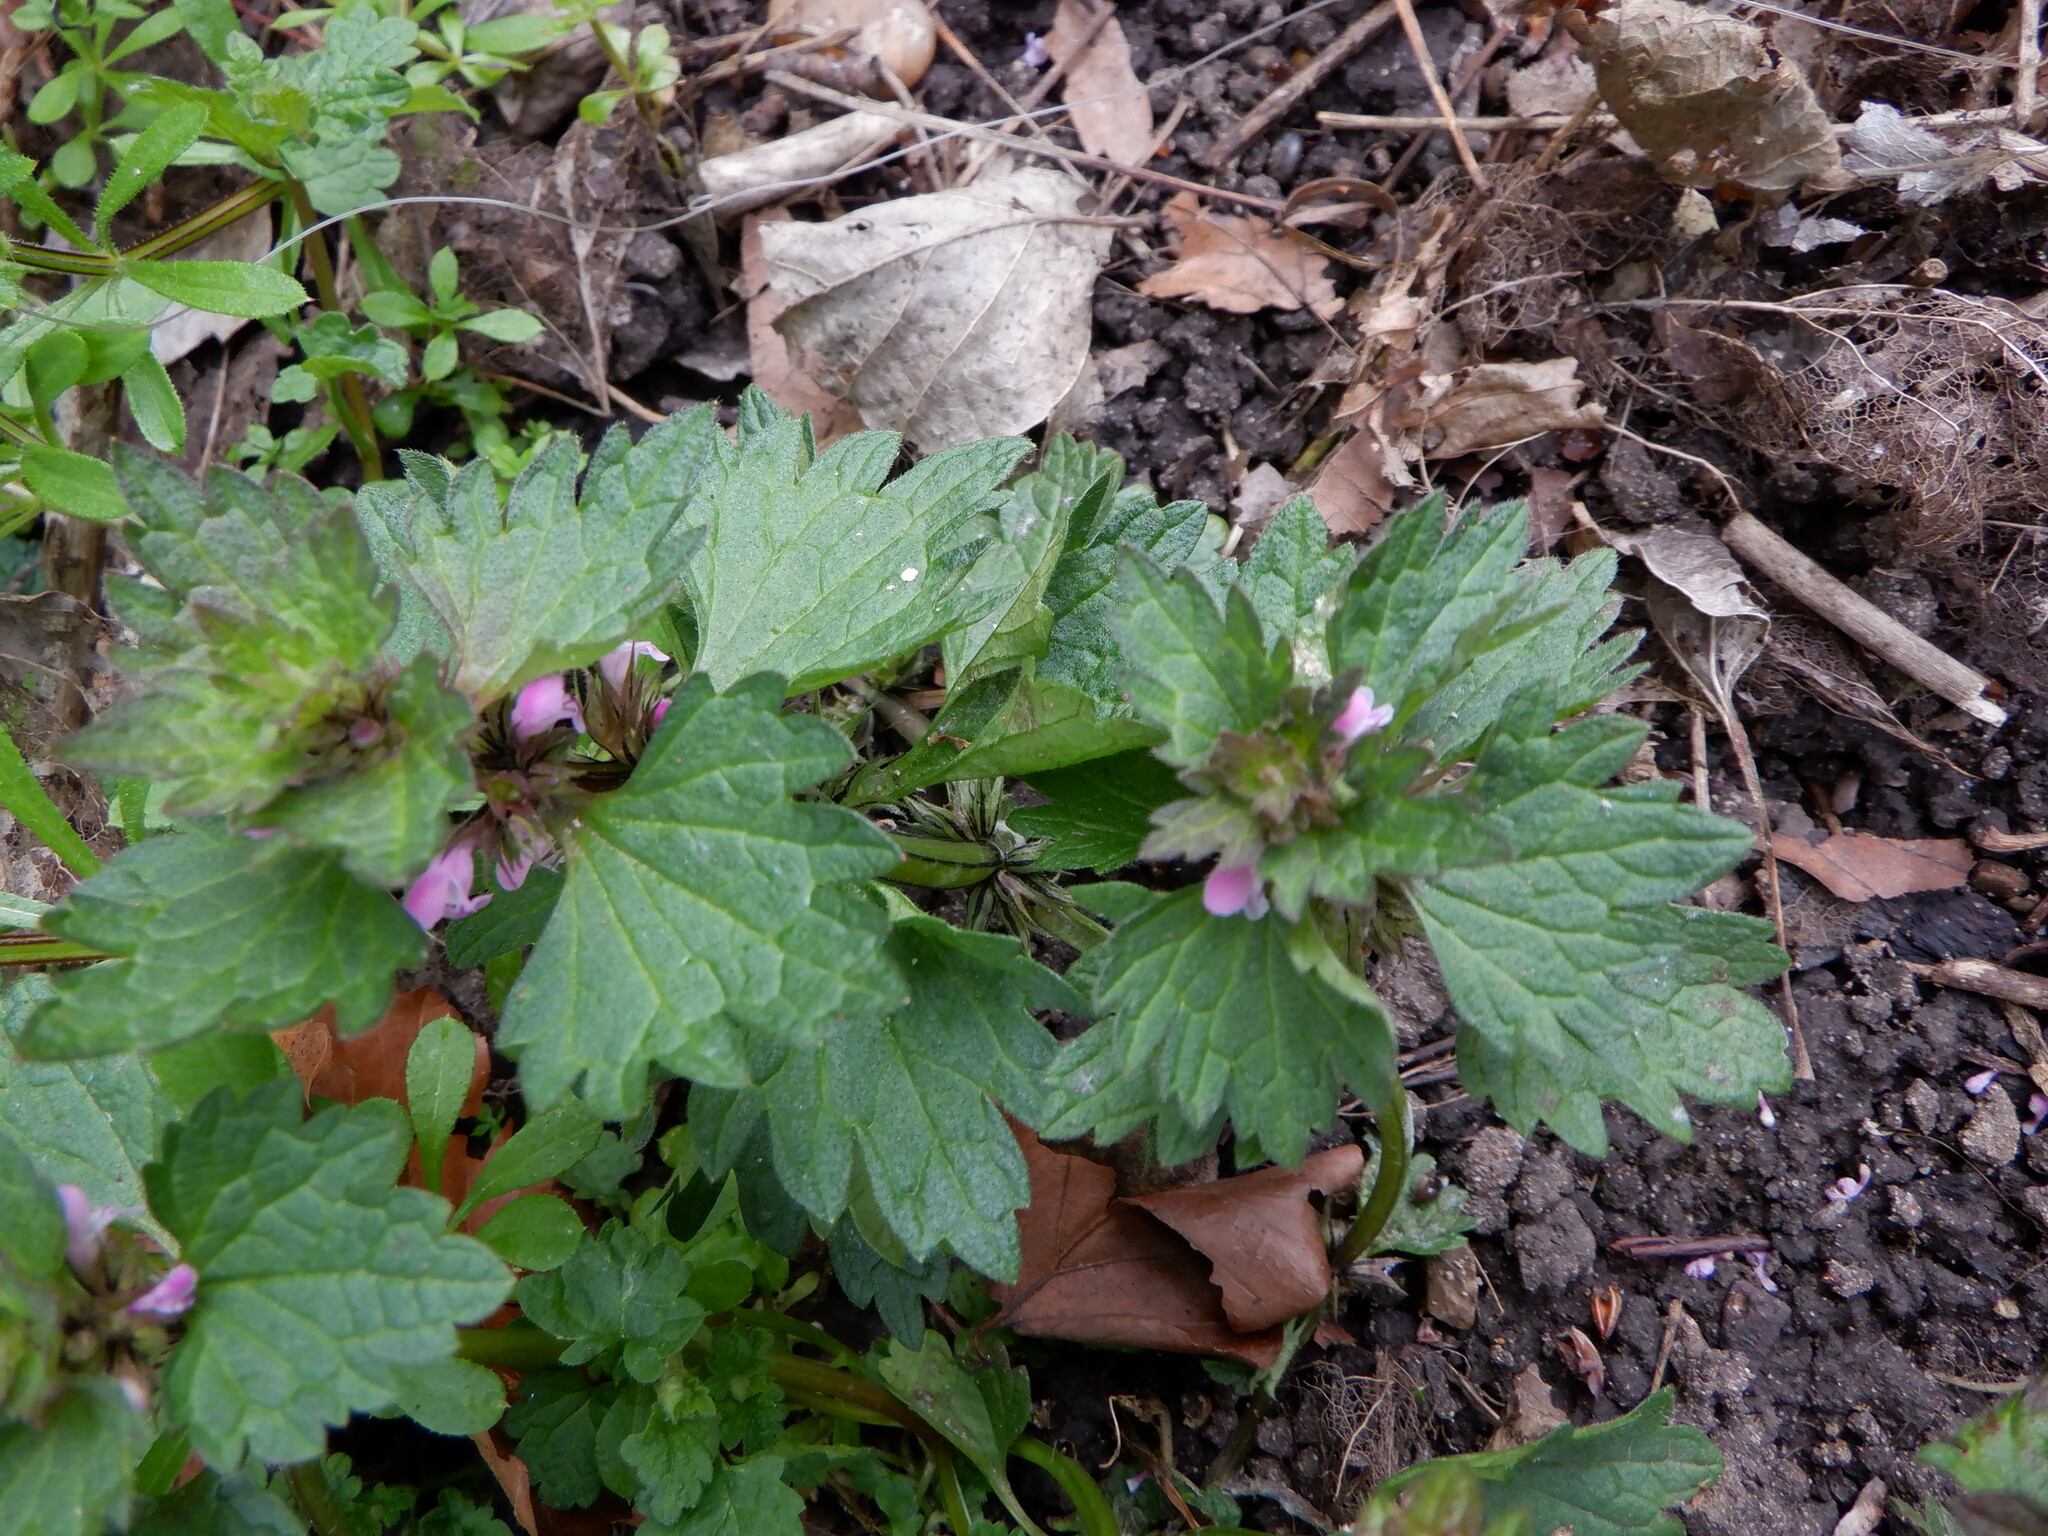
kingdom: Plantae
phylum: Tracheophyta
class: Magnoliopsida
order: Lamiales
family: Lamiaceae
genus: Lamium
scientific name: Lamium hybridum
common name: Cut-leaved dead-nettle
